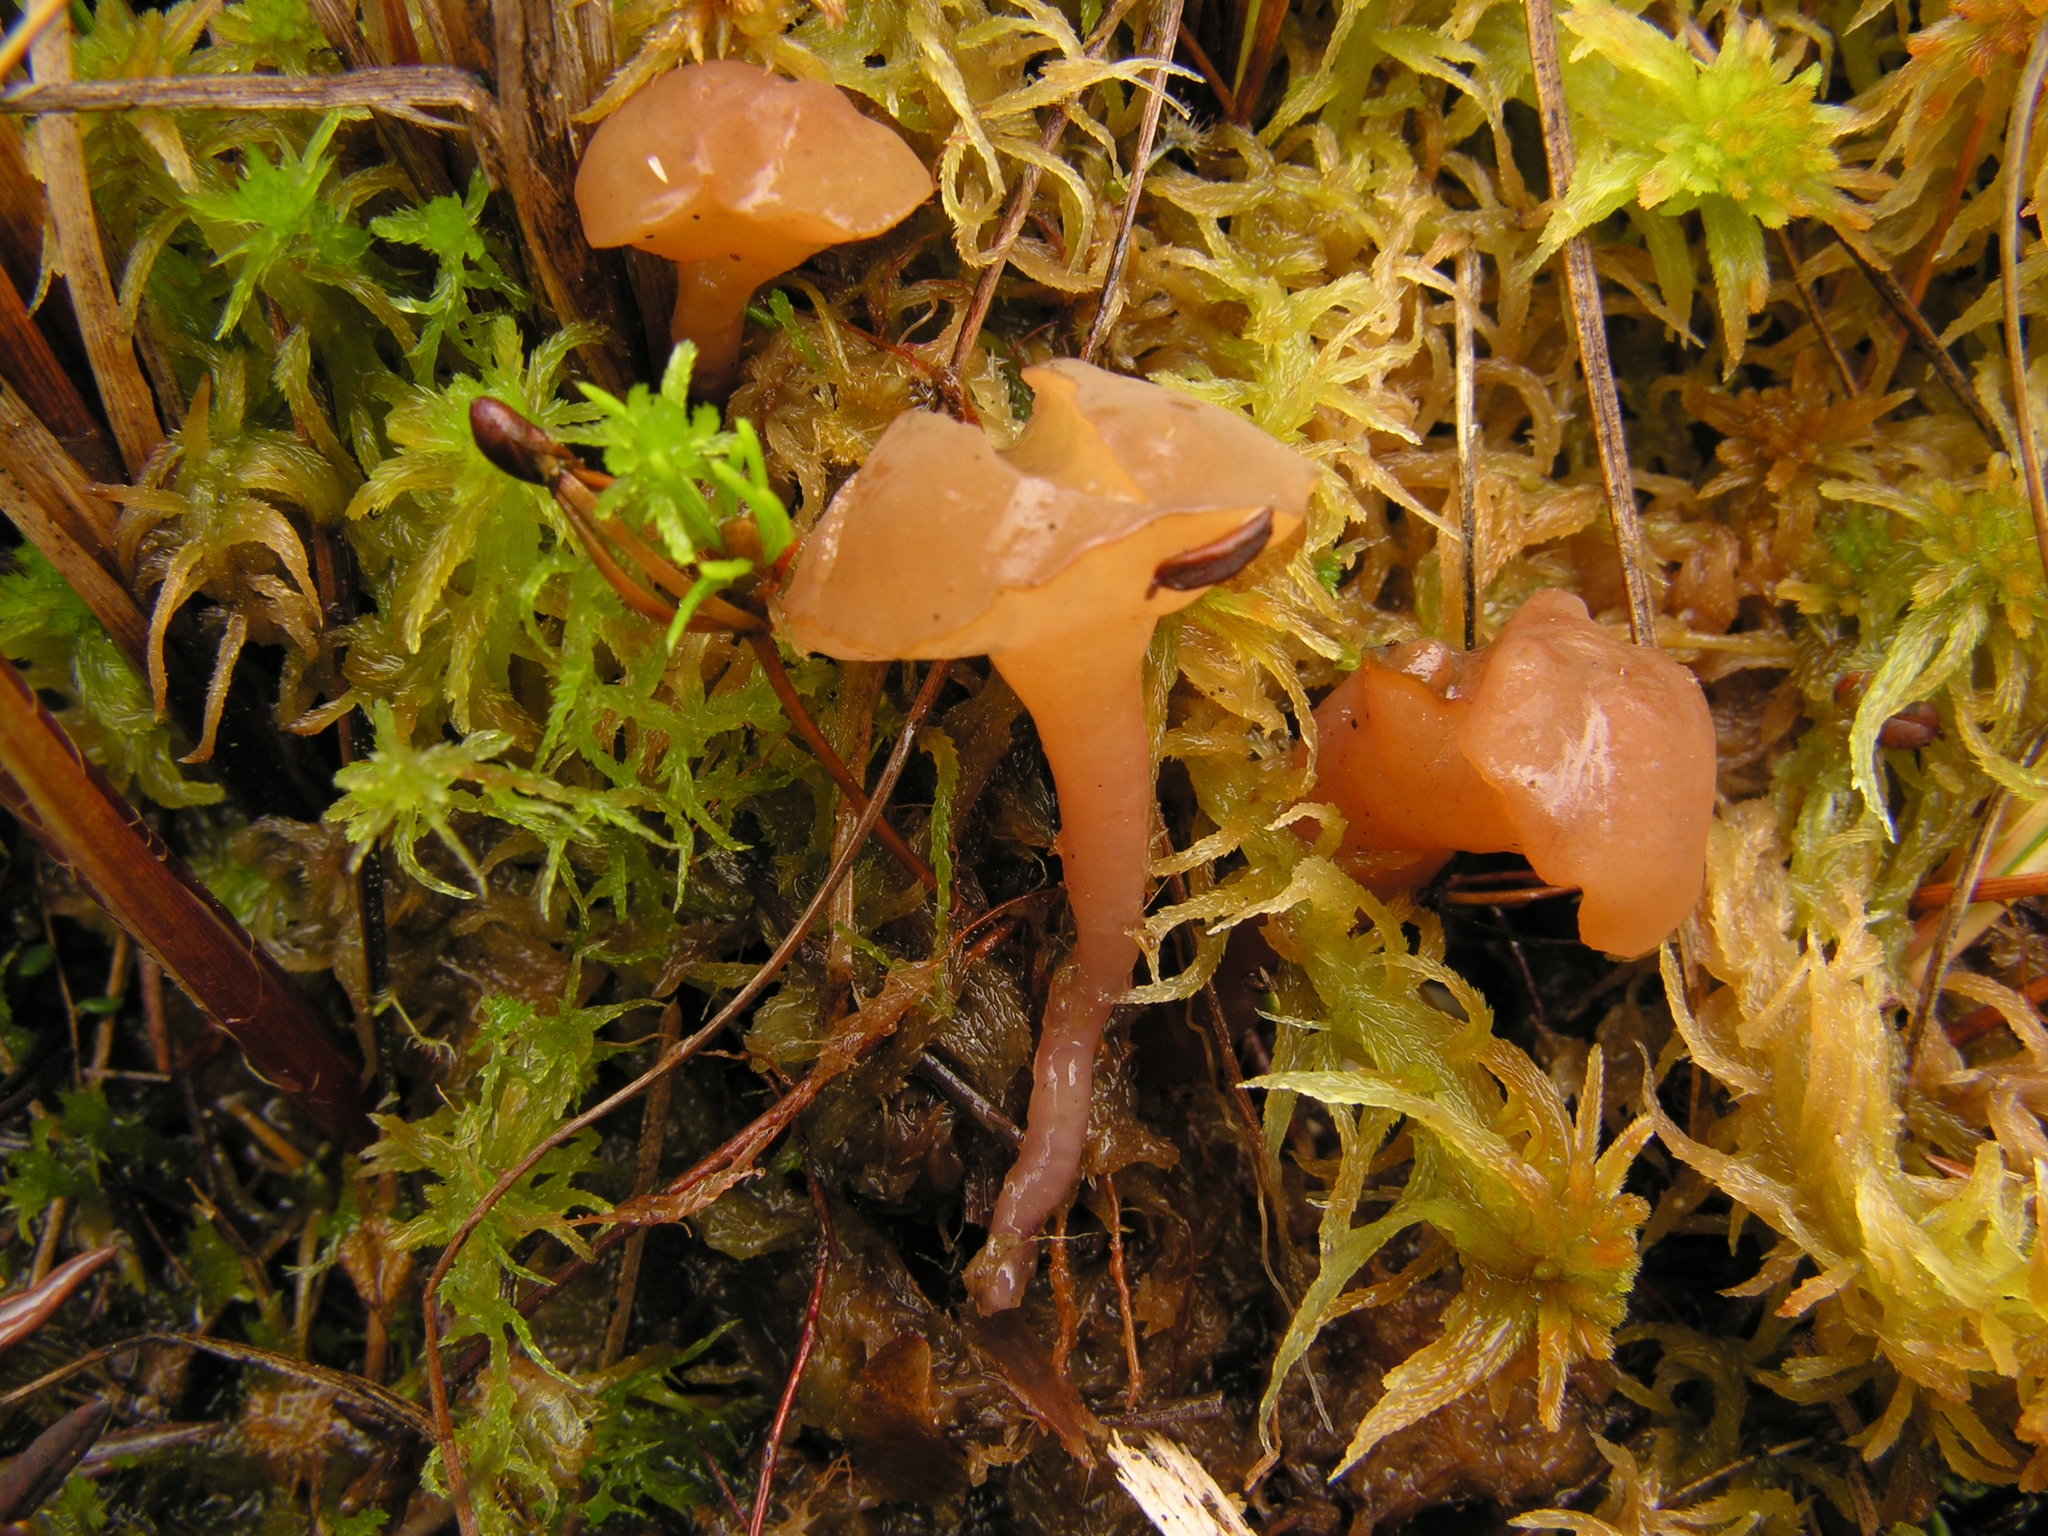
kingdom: Fungi
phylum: Ascomycota
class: Leotiomycetes
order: Helotiales
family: Gelatinodiscaceae
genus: Ascocoryne
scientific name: Ascocoryne turficola
